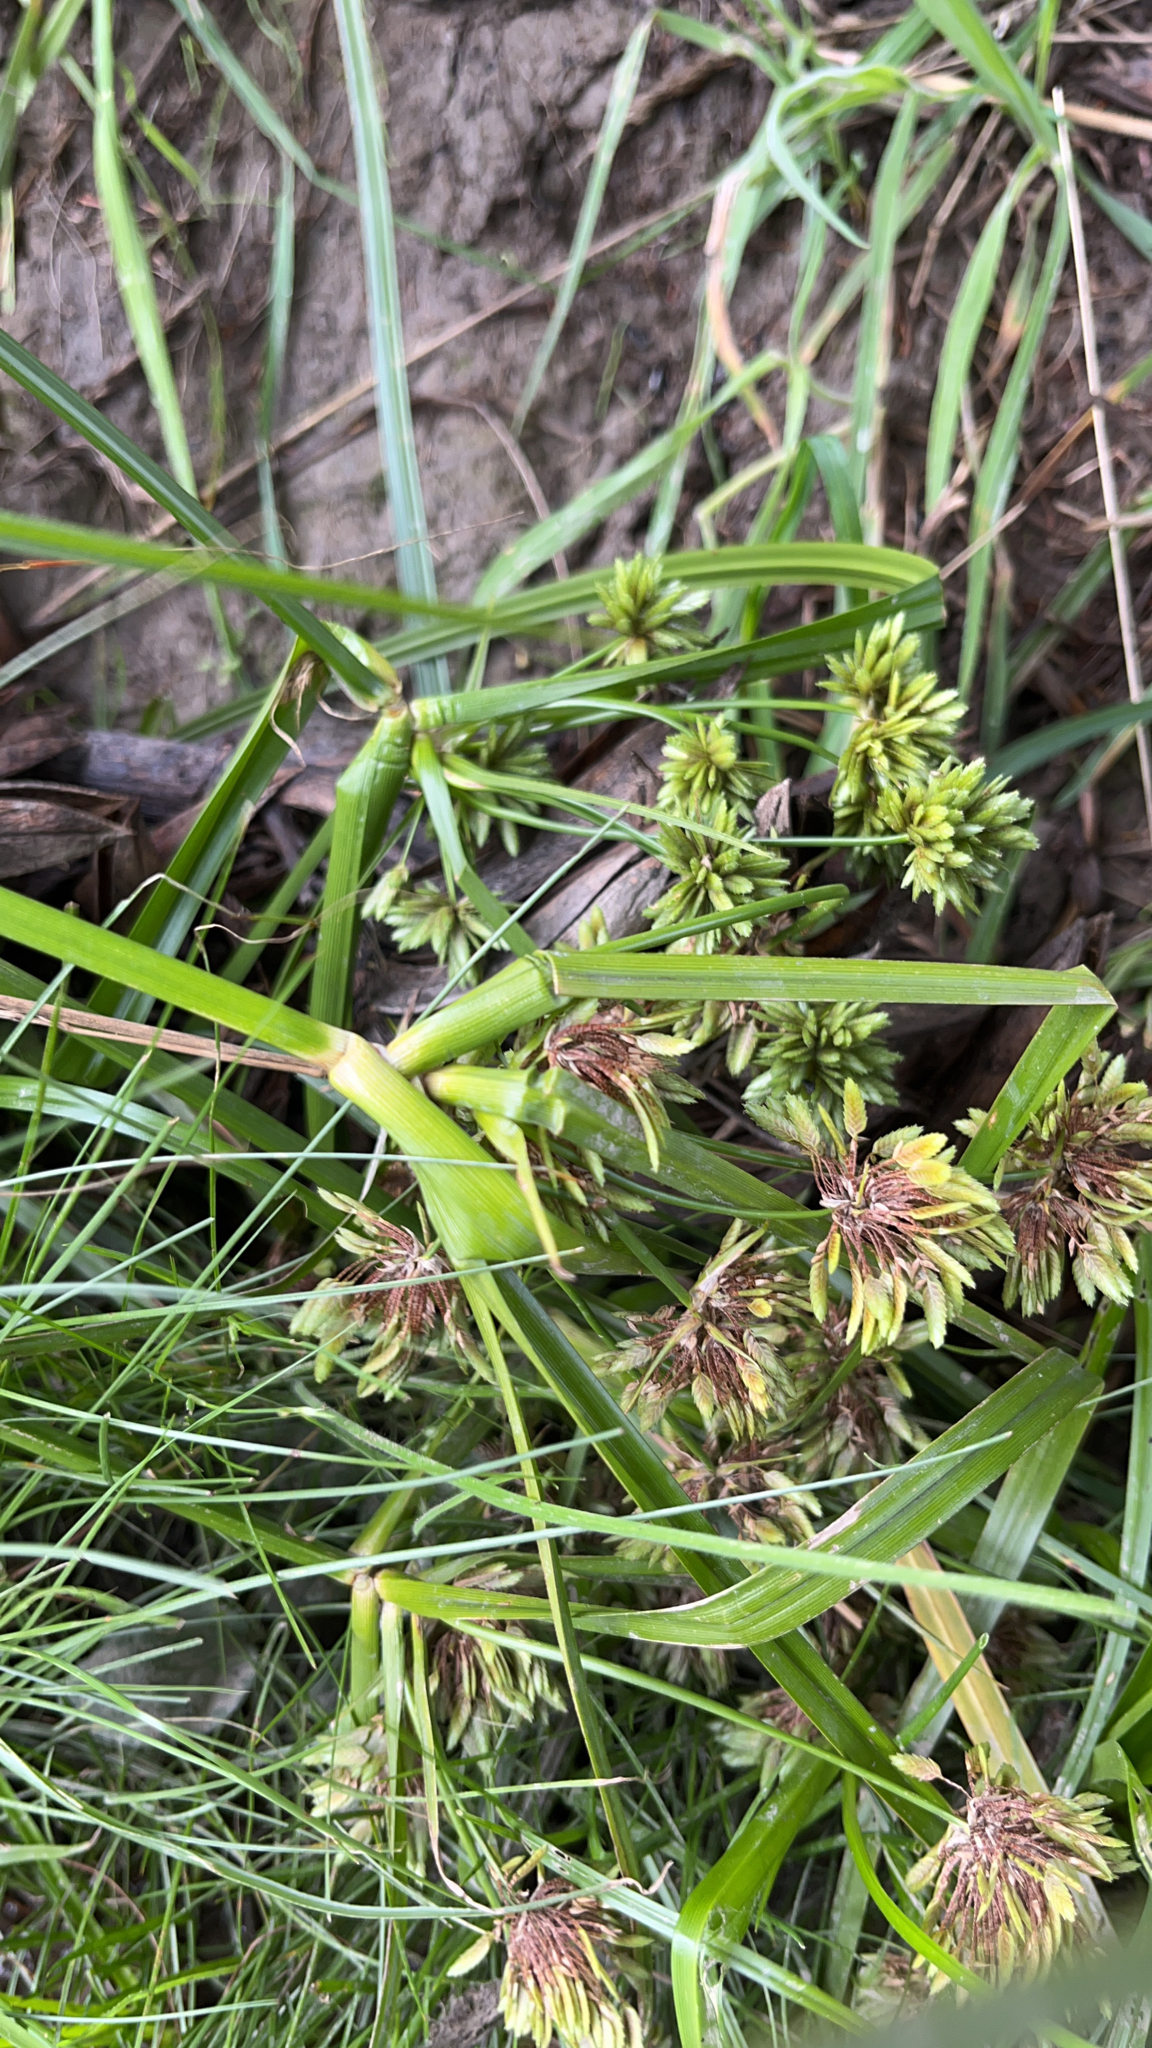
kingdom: Plantae
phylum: Tracheophyta
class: Liliopsida
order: Poales
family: Cyperaceae
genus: Cyperus
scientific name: Cyperus eragrostis
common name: Tall flatsedge
